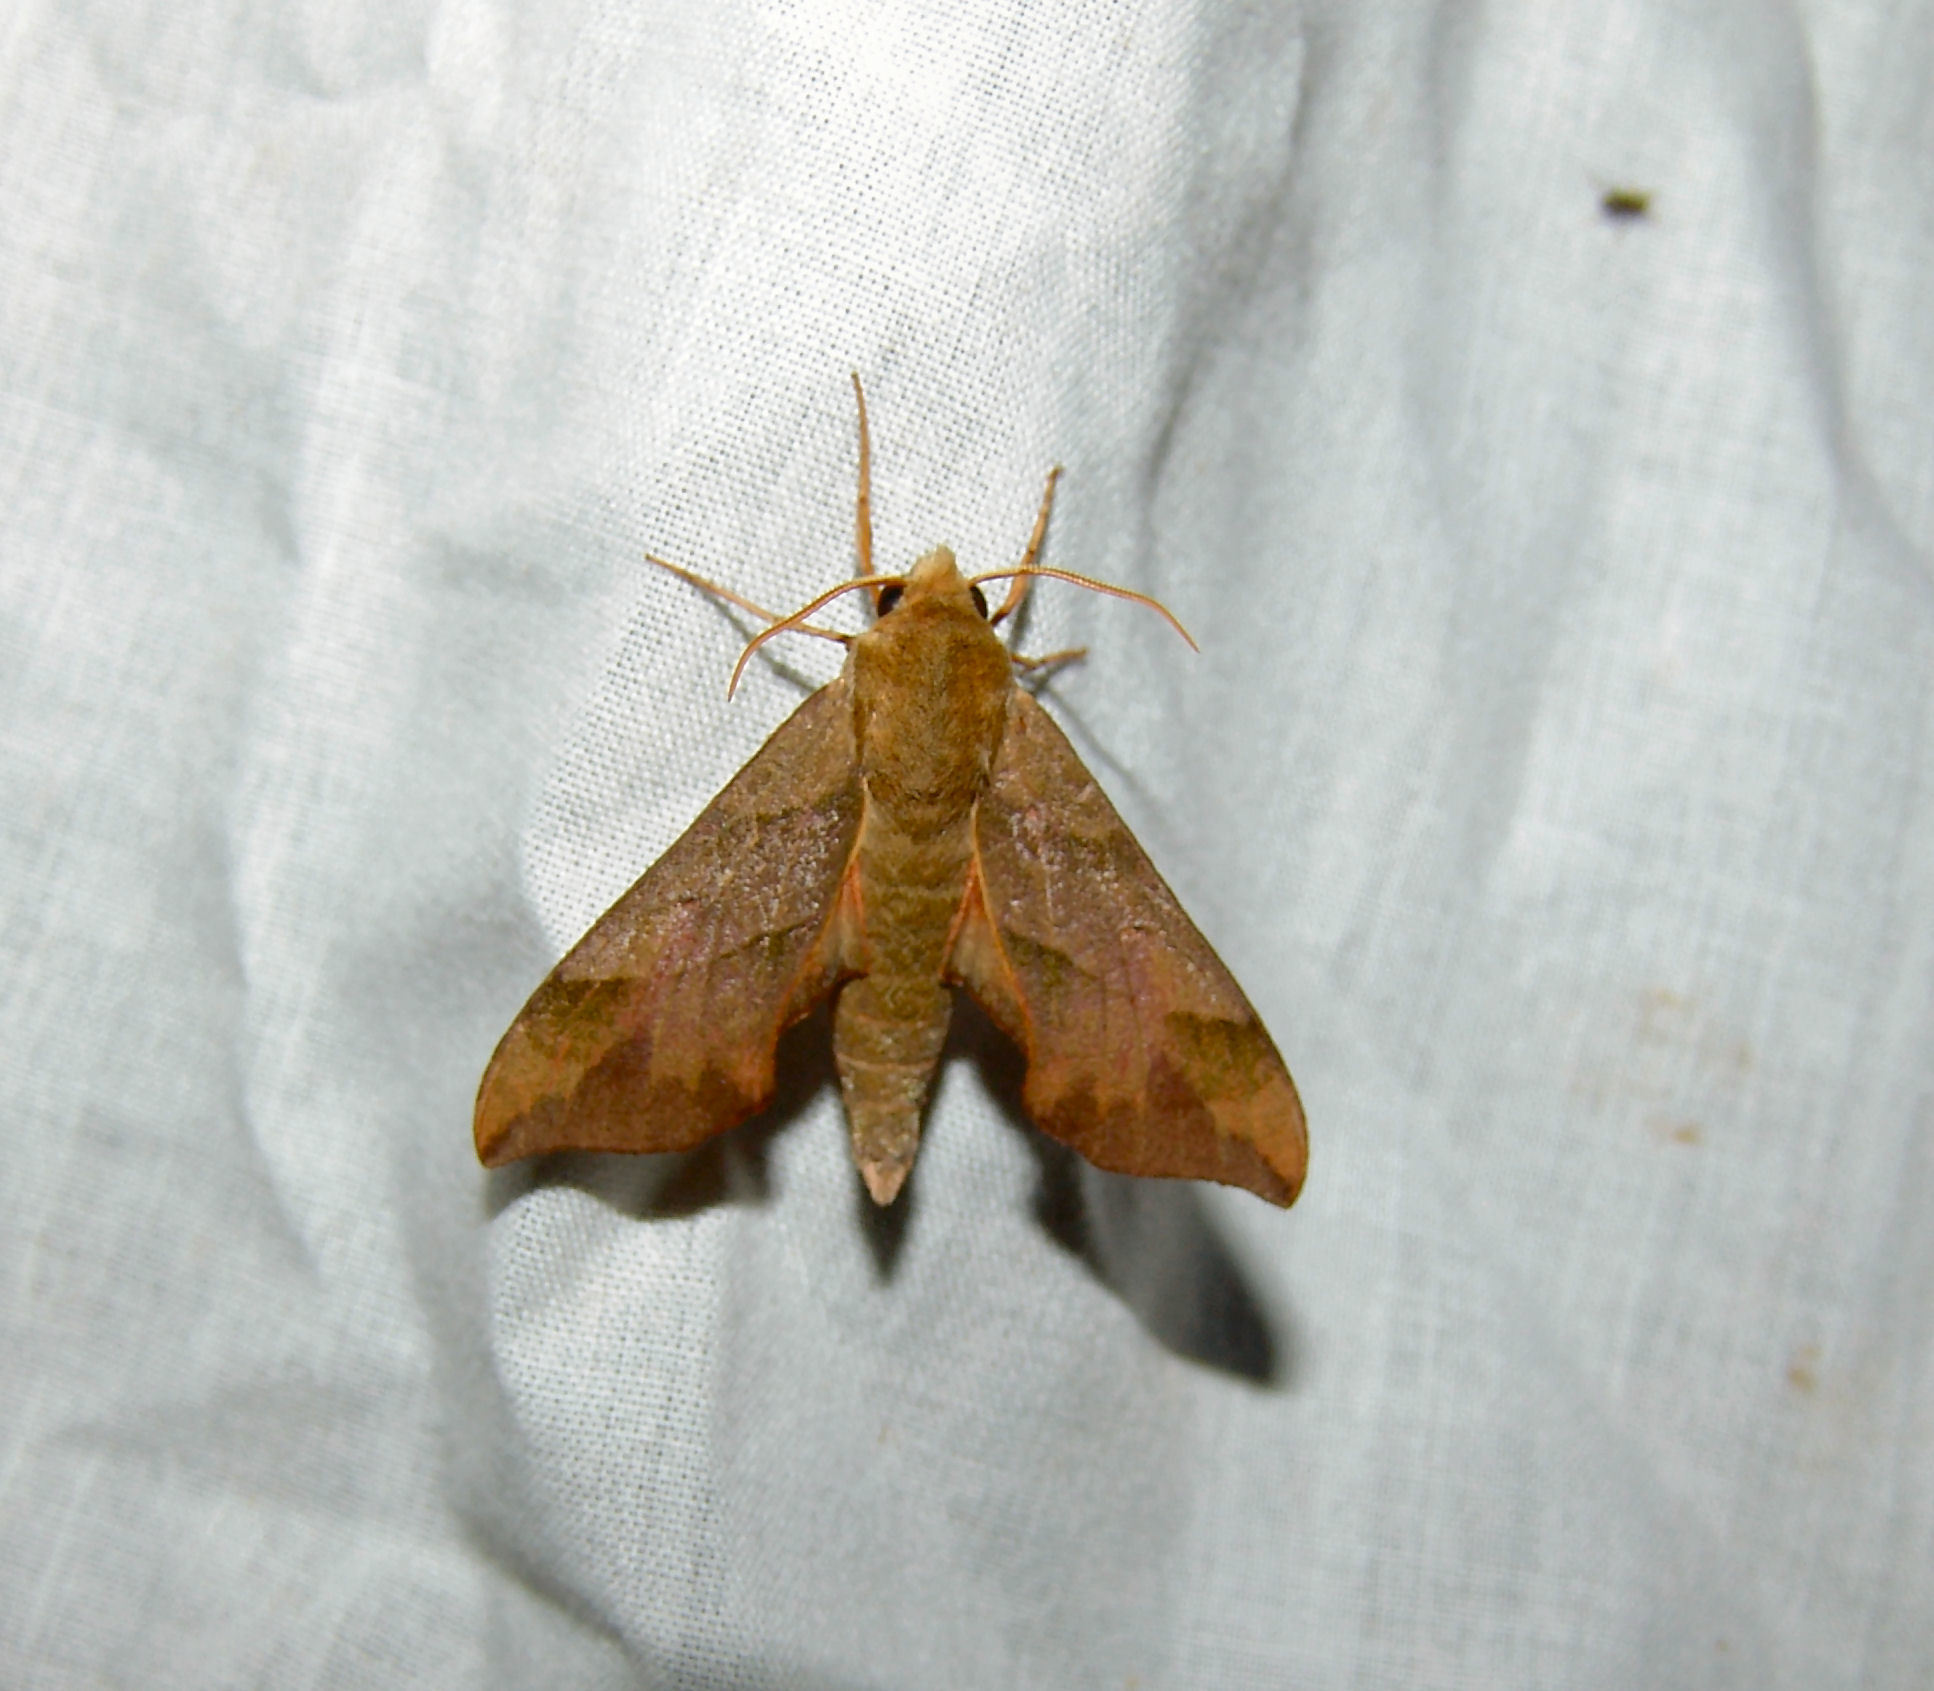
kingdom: Animalia
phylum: Arthropoda
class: Insecta
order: Lepidoptera
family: Sphingidae
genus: Darapsa
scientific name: Darapsa myron
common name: Hog sphinx
